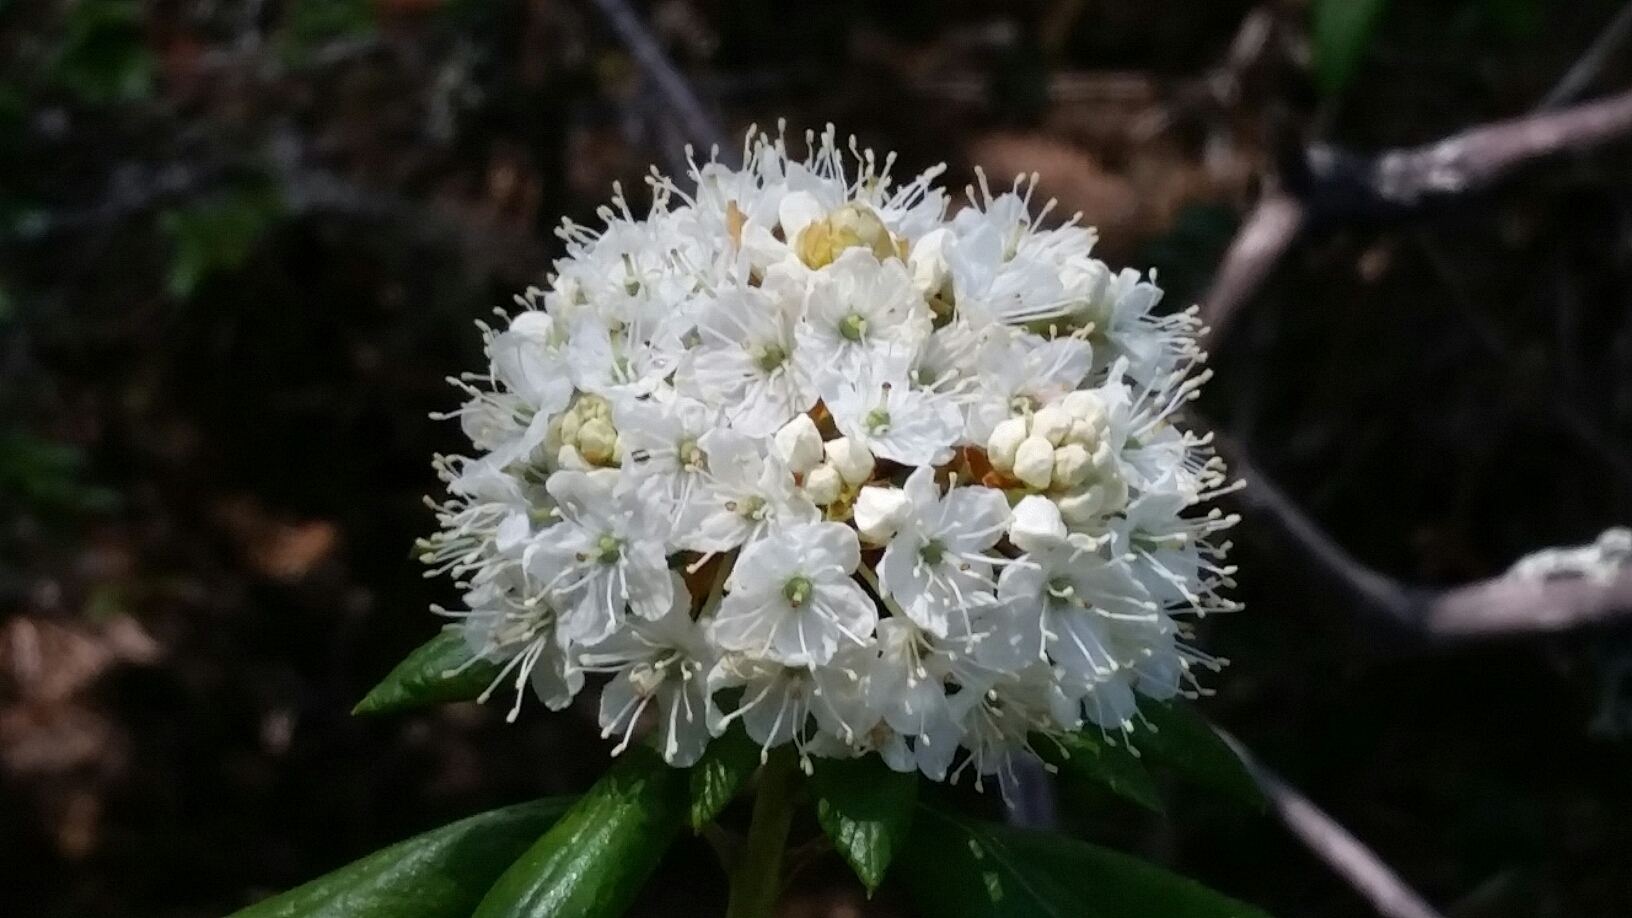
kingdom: Plantae
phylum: Tracheophyta
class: Magnoliopsida
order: Ericales
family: Ericaceae
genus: Rhododendron
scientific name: Rhododendron columbianum
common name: Western labrador tea
